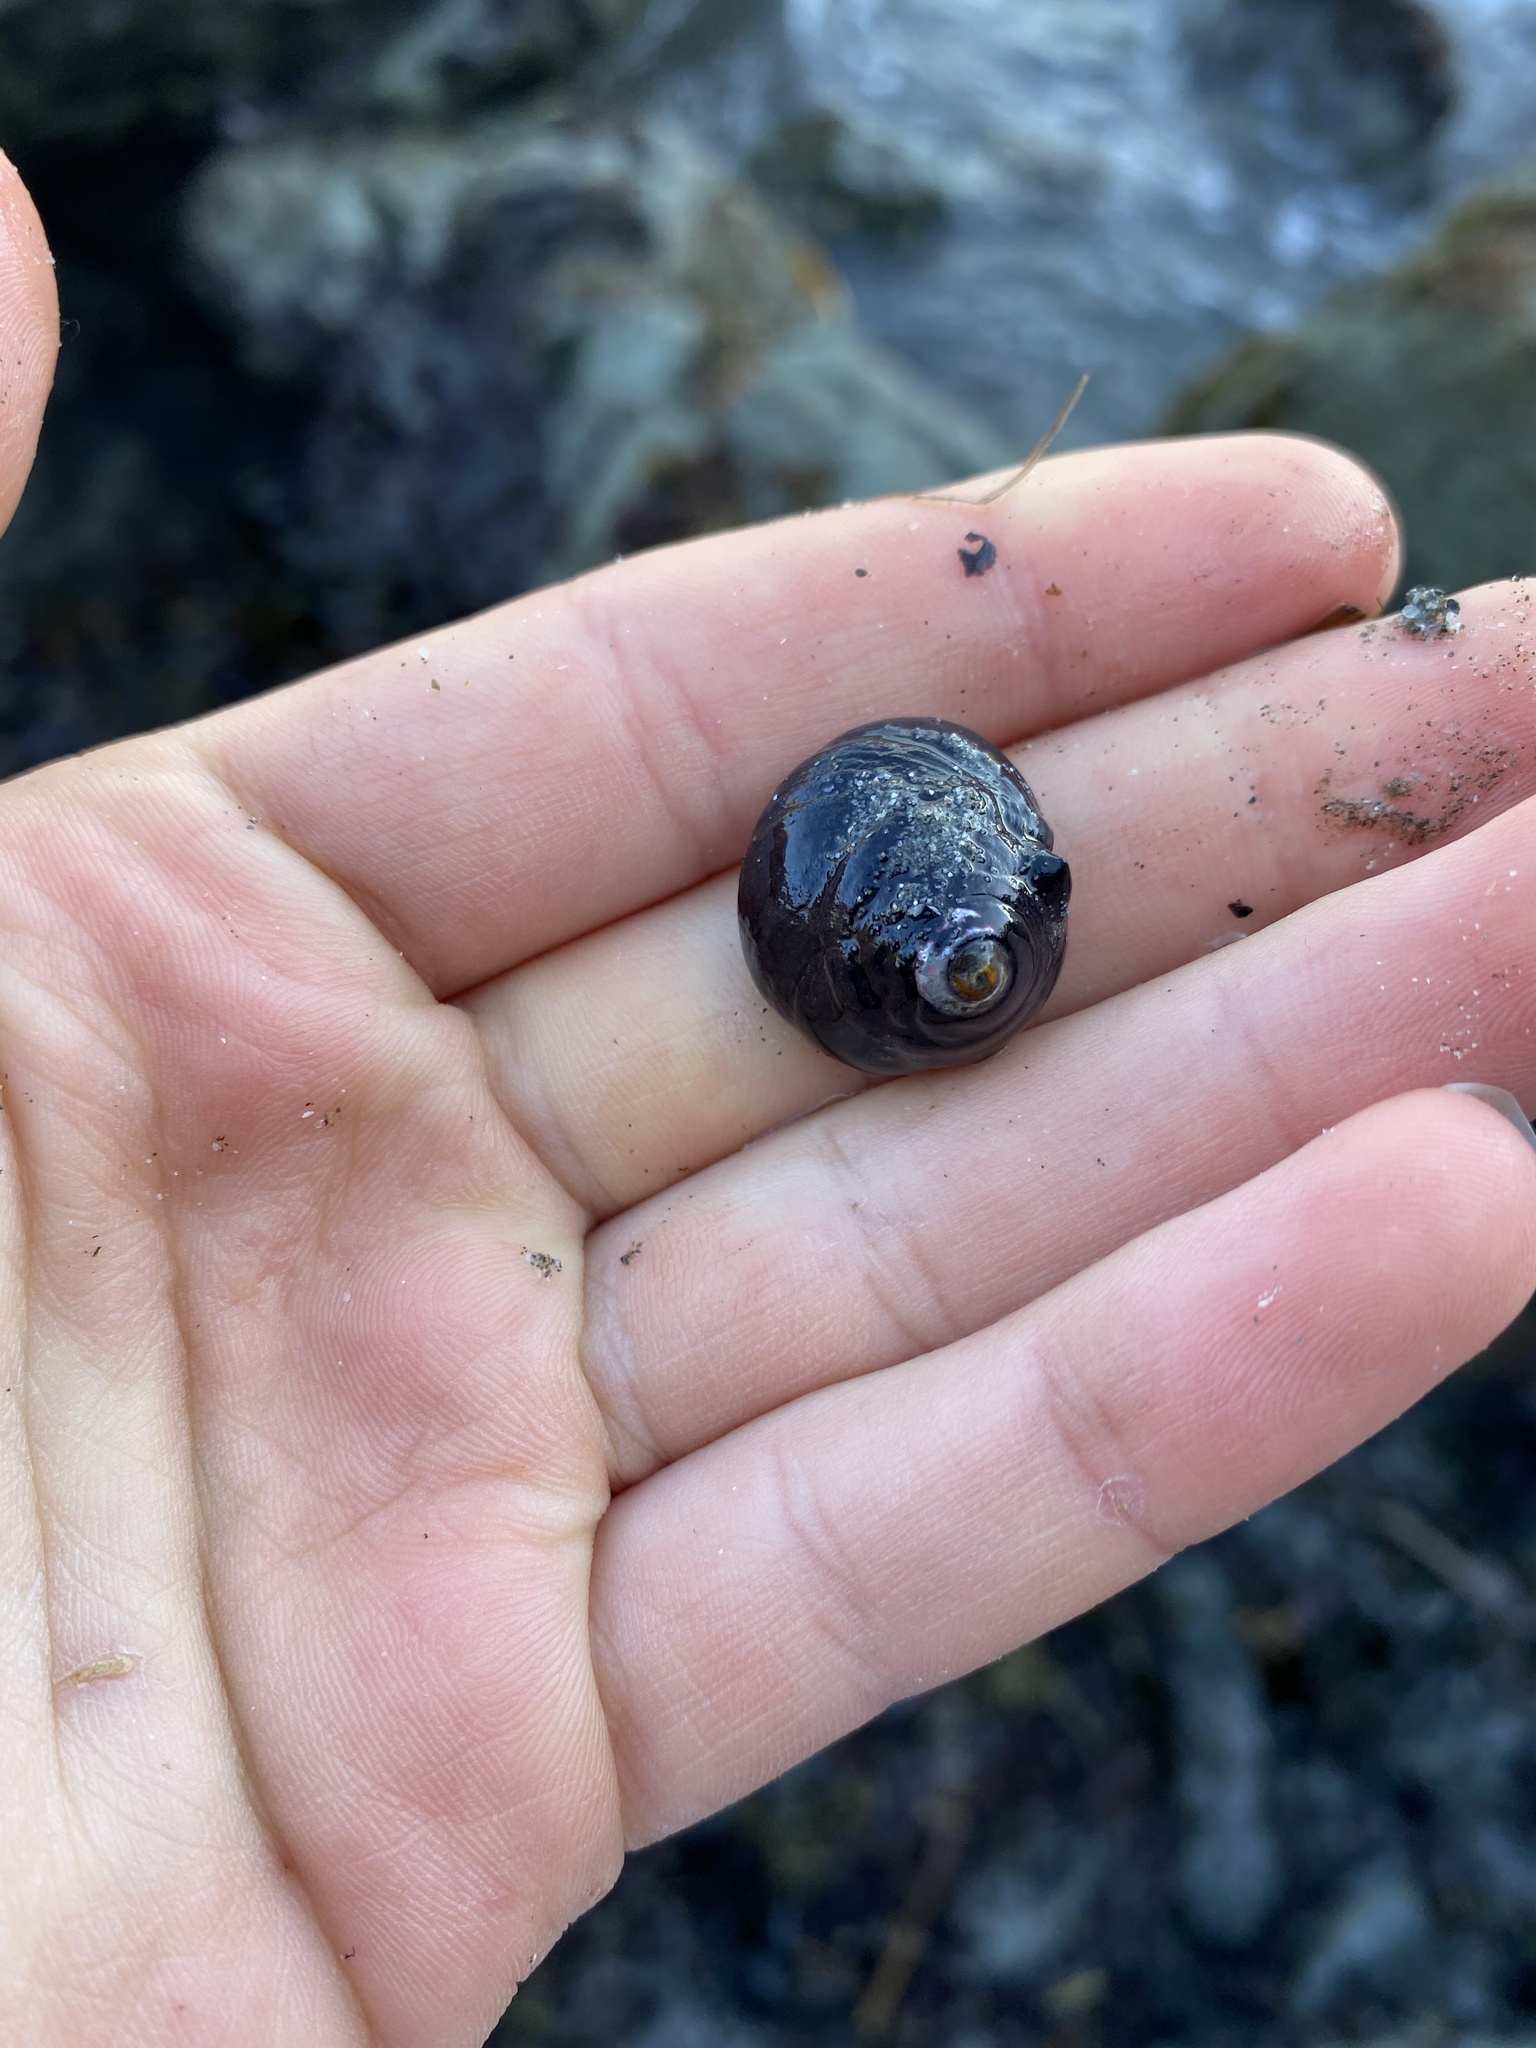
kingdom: Animalia
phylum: Mollusca
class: Gastropoda
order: Trochida
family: Tegulidae
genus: Tegula
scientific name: Tegula funebralis
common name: Black tegula
